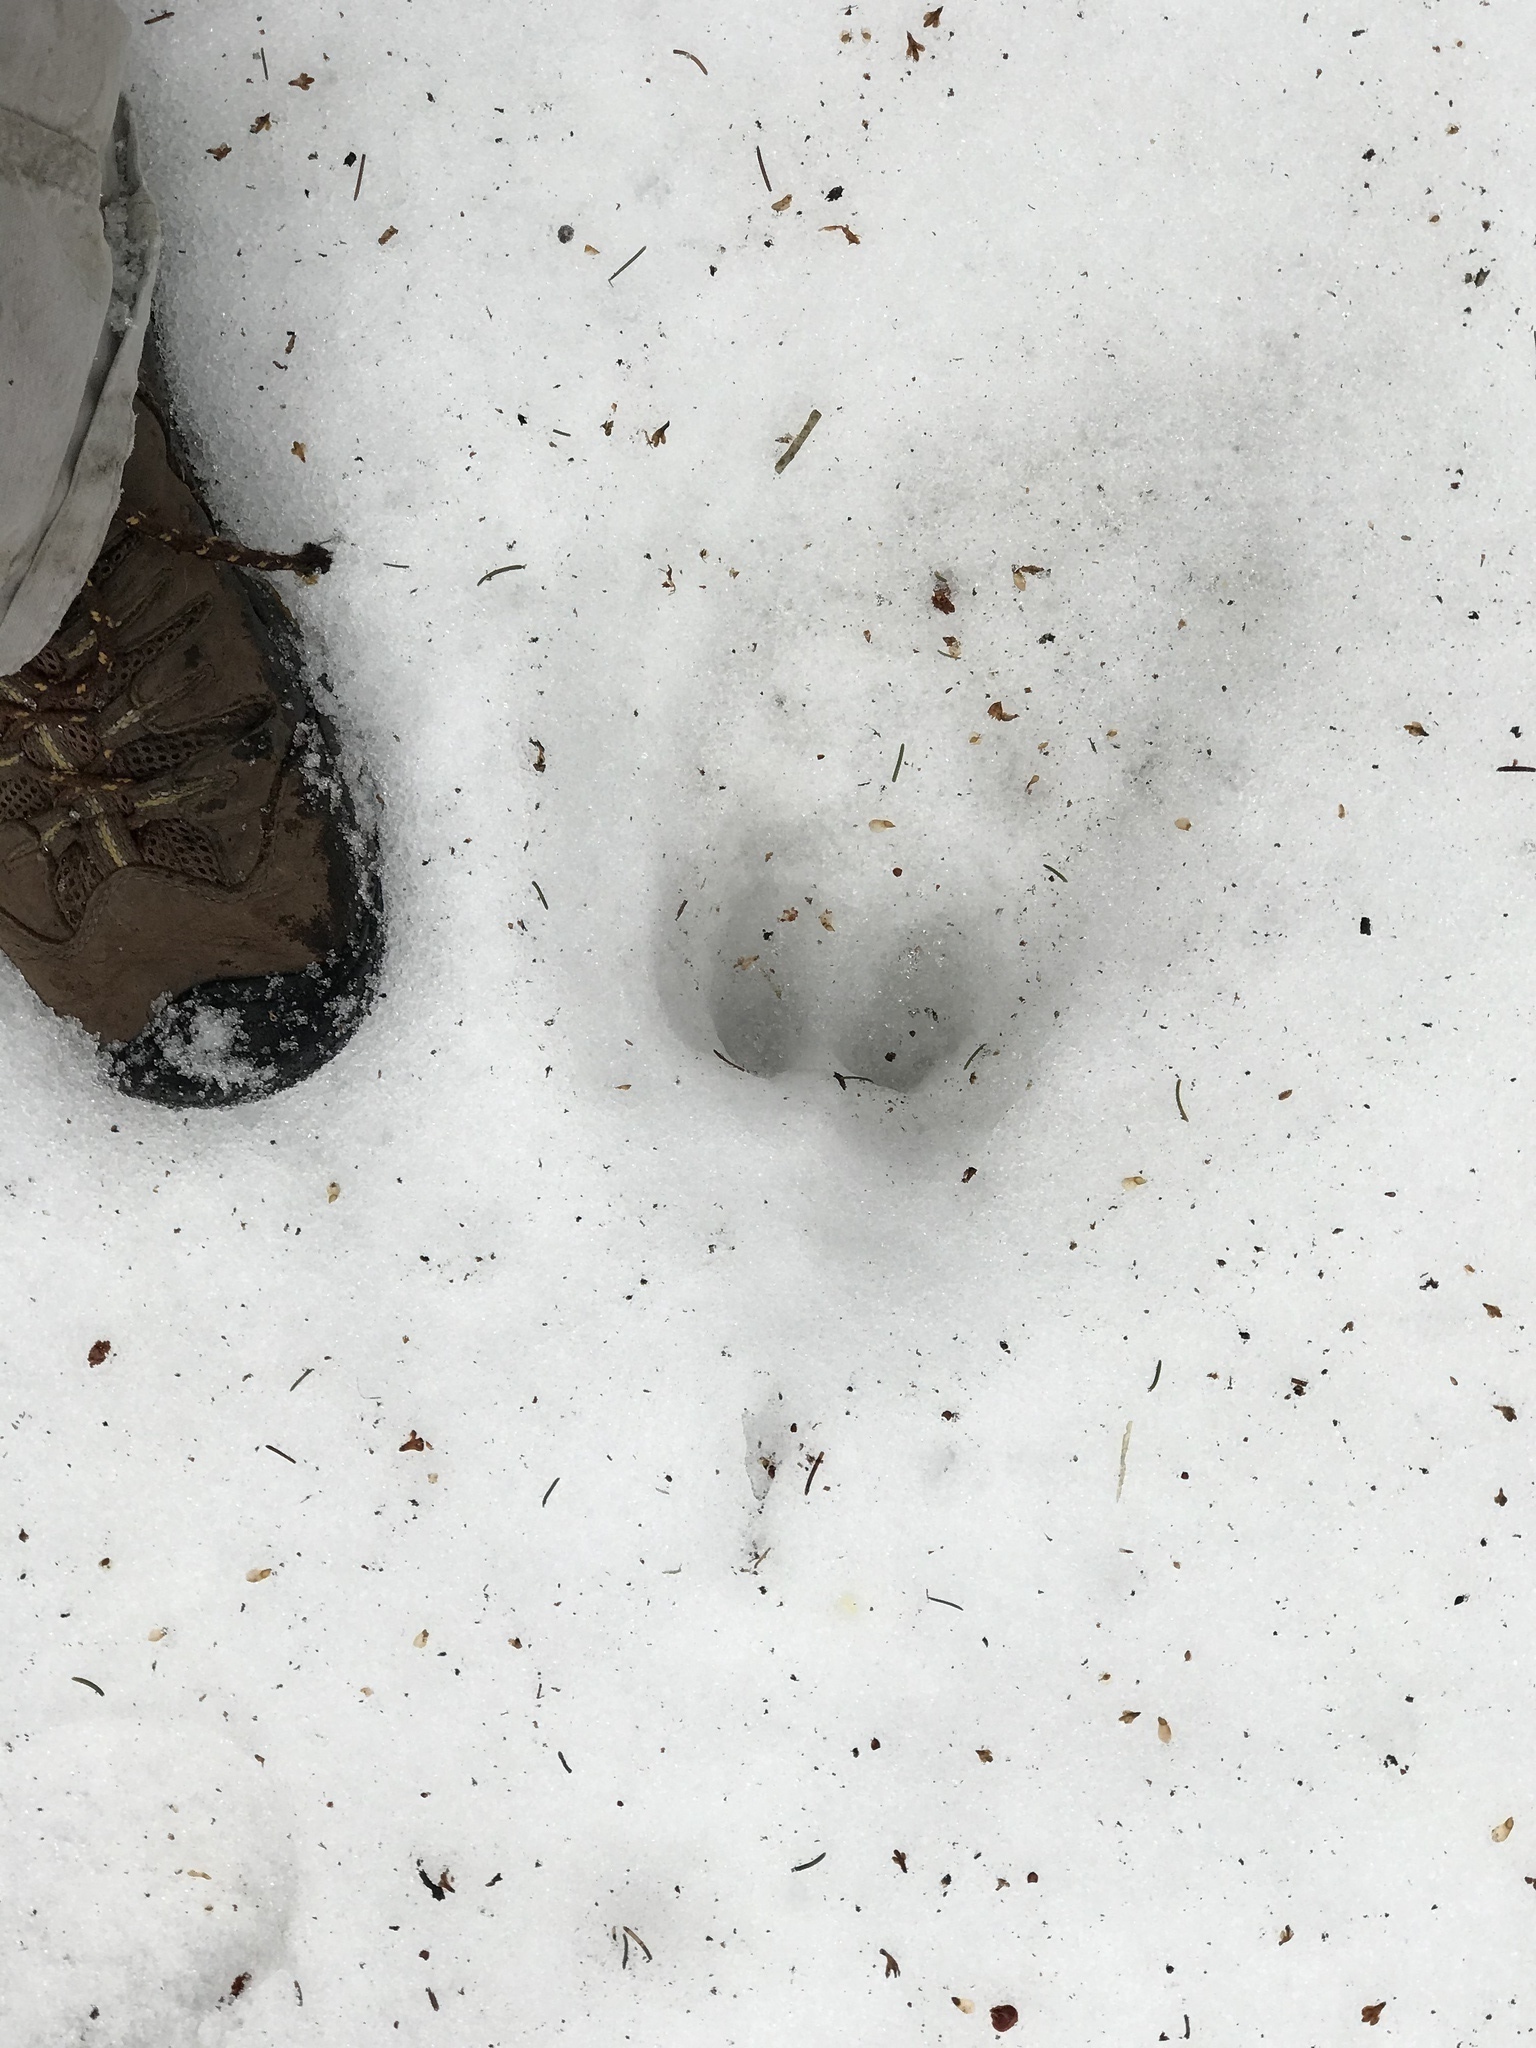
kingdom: Animalia
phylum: Chordata
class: Mammalia
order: Artiodactyla
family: Cervidae
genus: Alces
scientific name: Alces alces
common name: Moose
